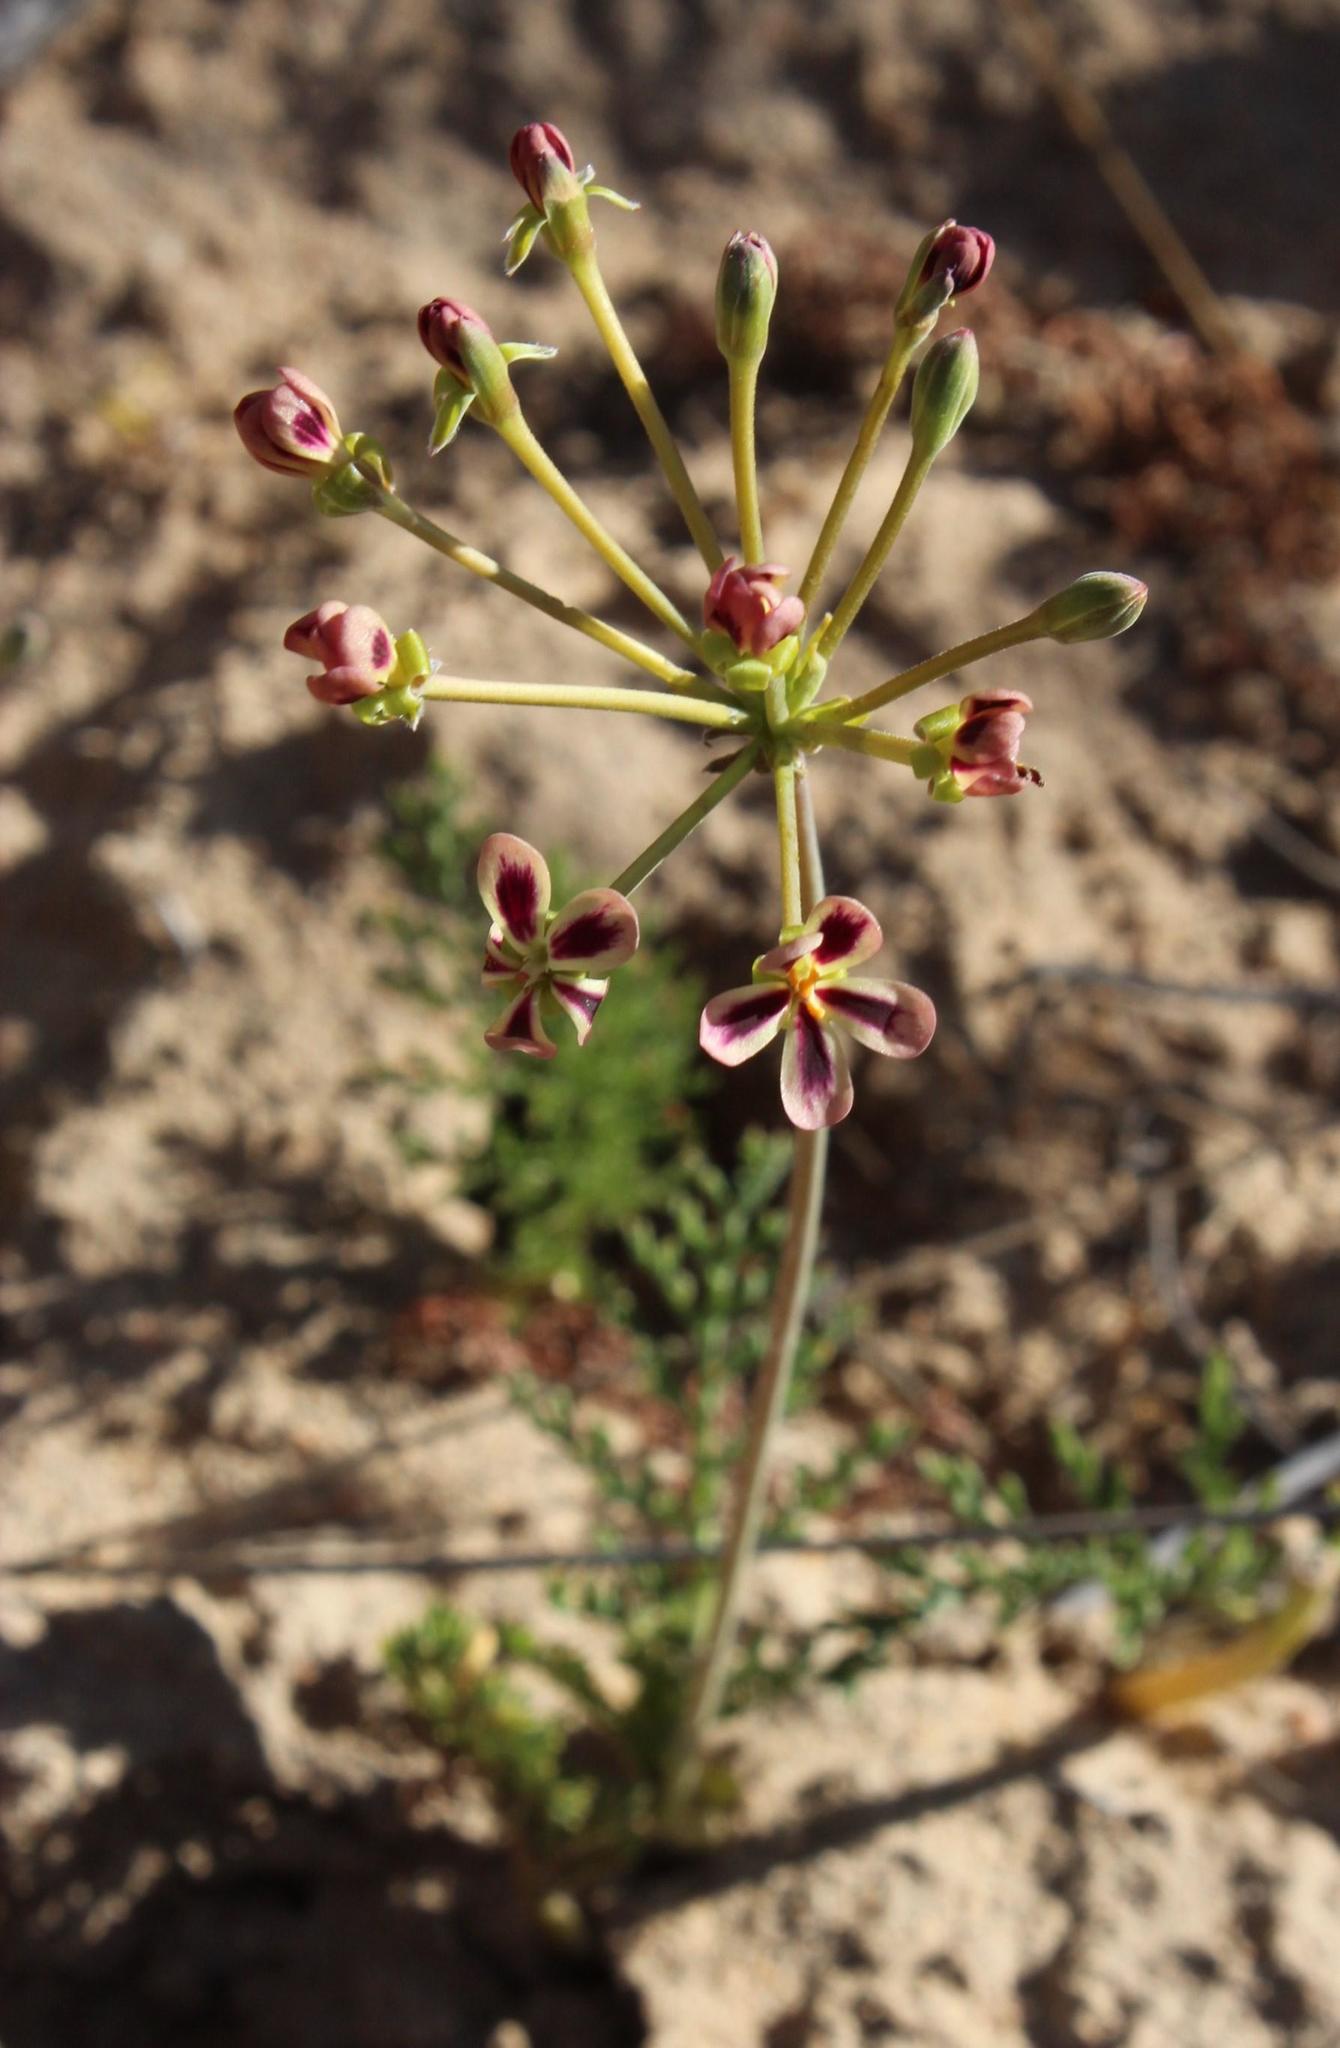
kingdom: Plantae
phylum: Tracheophyta
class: Magnoliopsida
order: Geraniales
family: Geraniaceae
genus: Pelargonium
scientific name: Pelargonium triste
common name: Night-scent pelargonium
